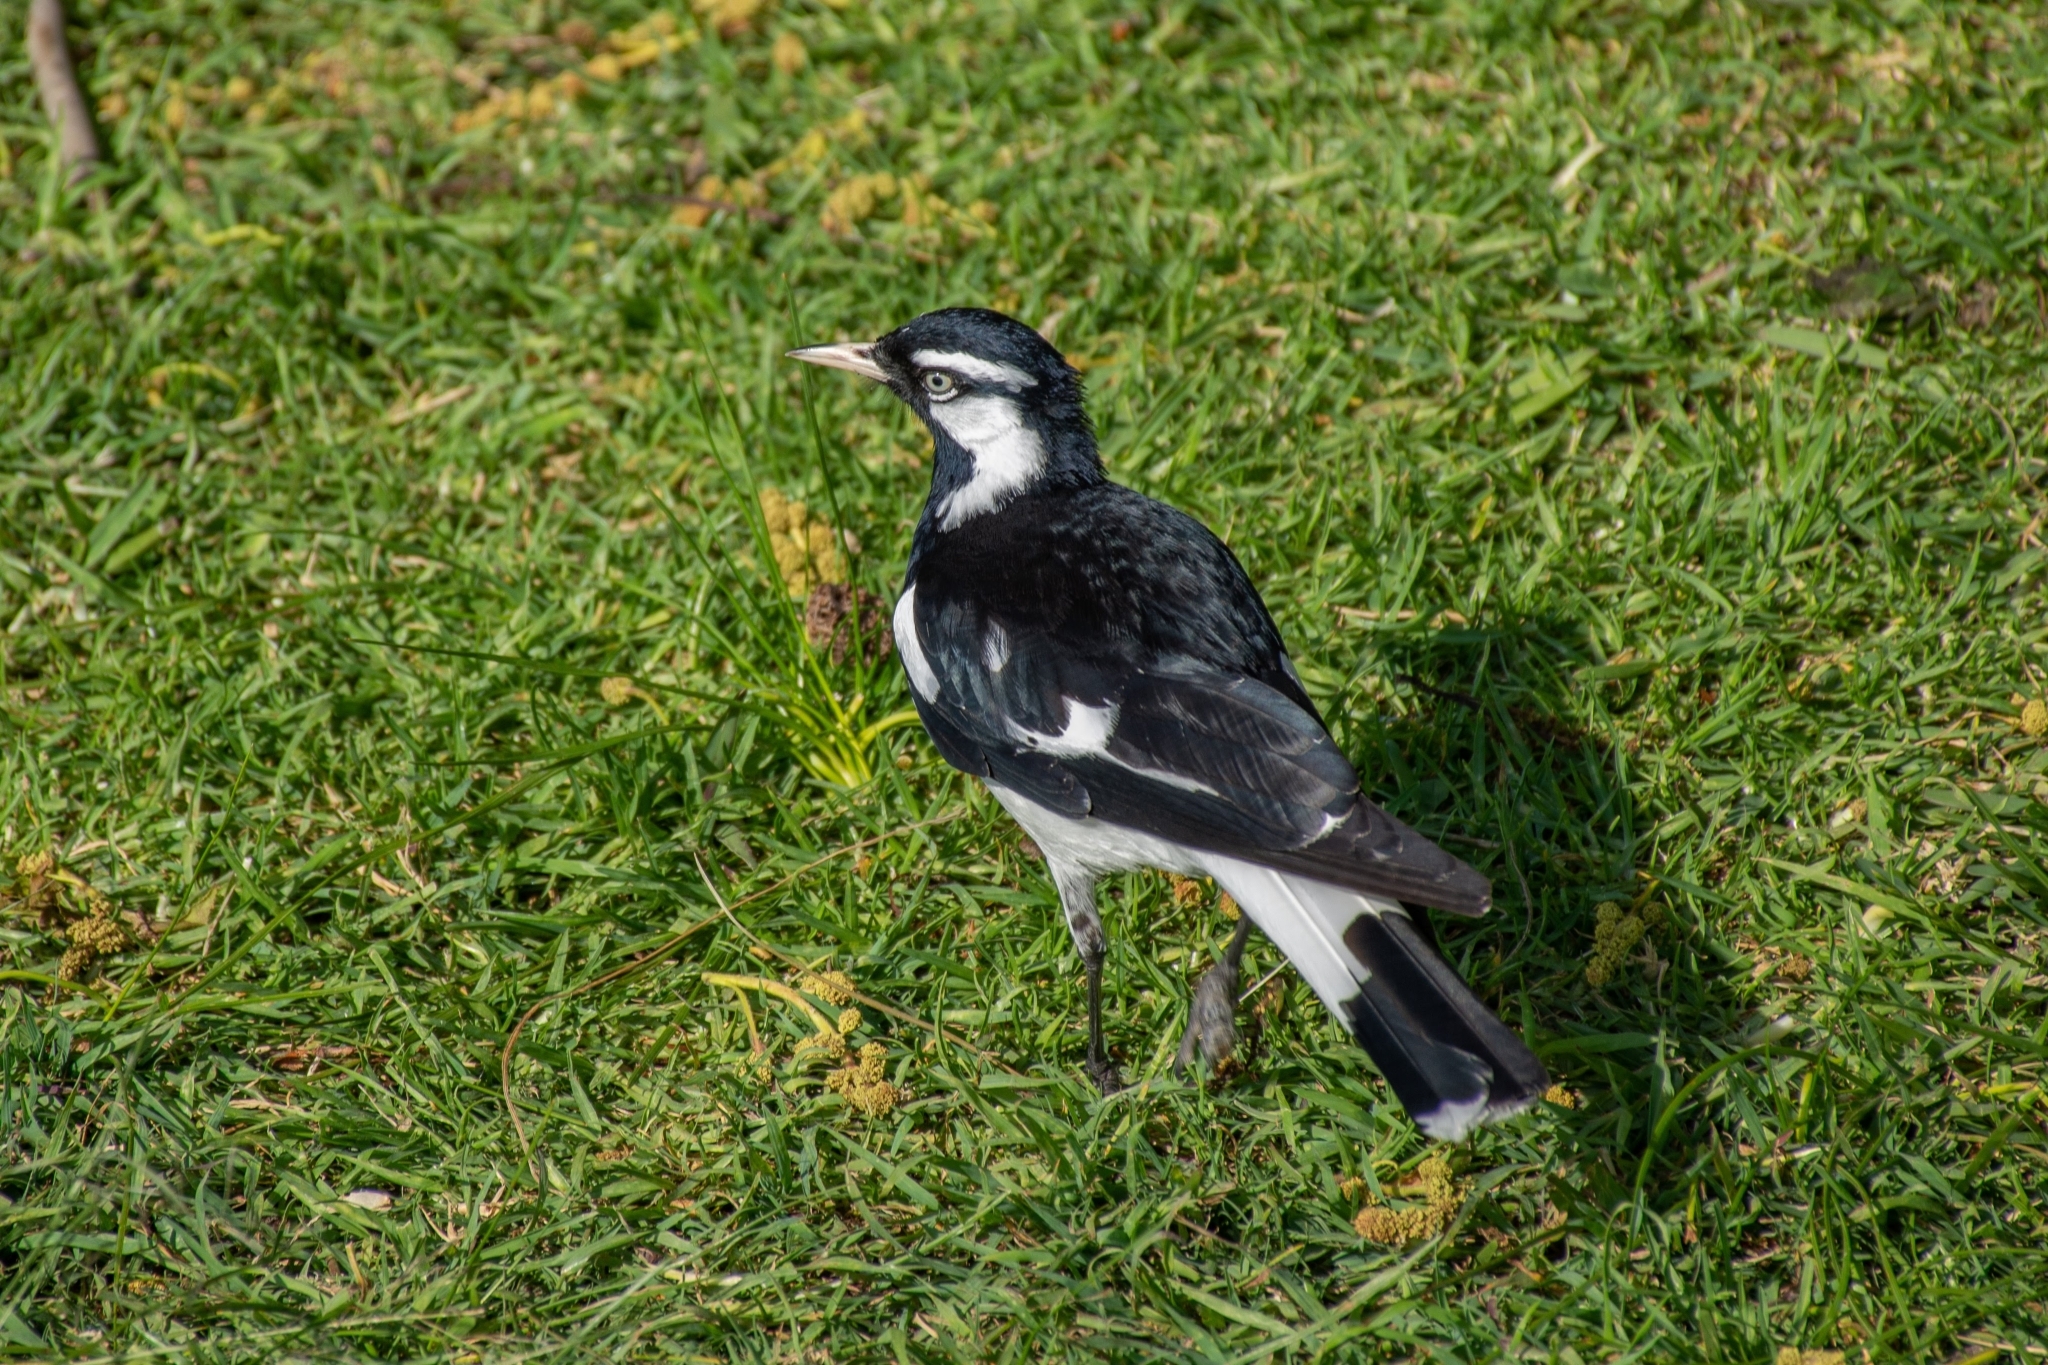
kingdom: Animalia
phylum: Chordata
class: Aves
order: Passeriformes
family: Monarchidae
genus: Grallina
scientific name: Grallina cyanoleuca
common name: Magpie-lark
